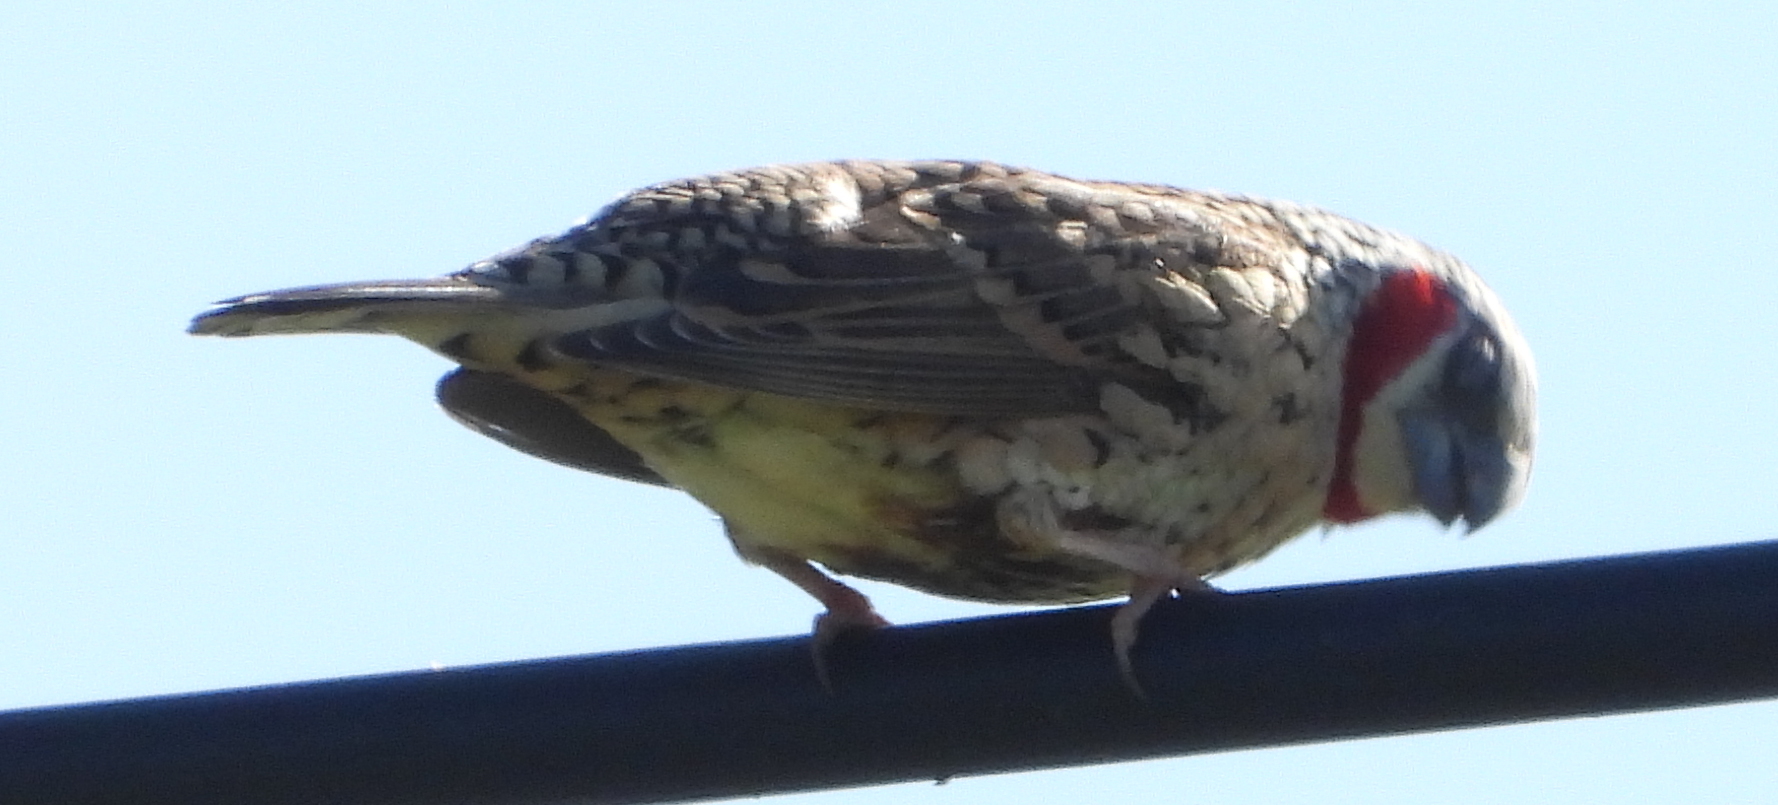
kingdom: Animalia
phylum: Chordata
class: Aves
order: Passeriformes
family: Estrildidae
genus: Amadina
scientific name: Amadina fasciata
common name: Cut-throat finch
